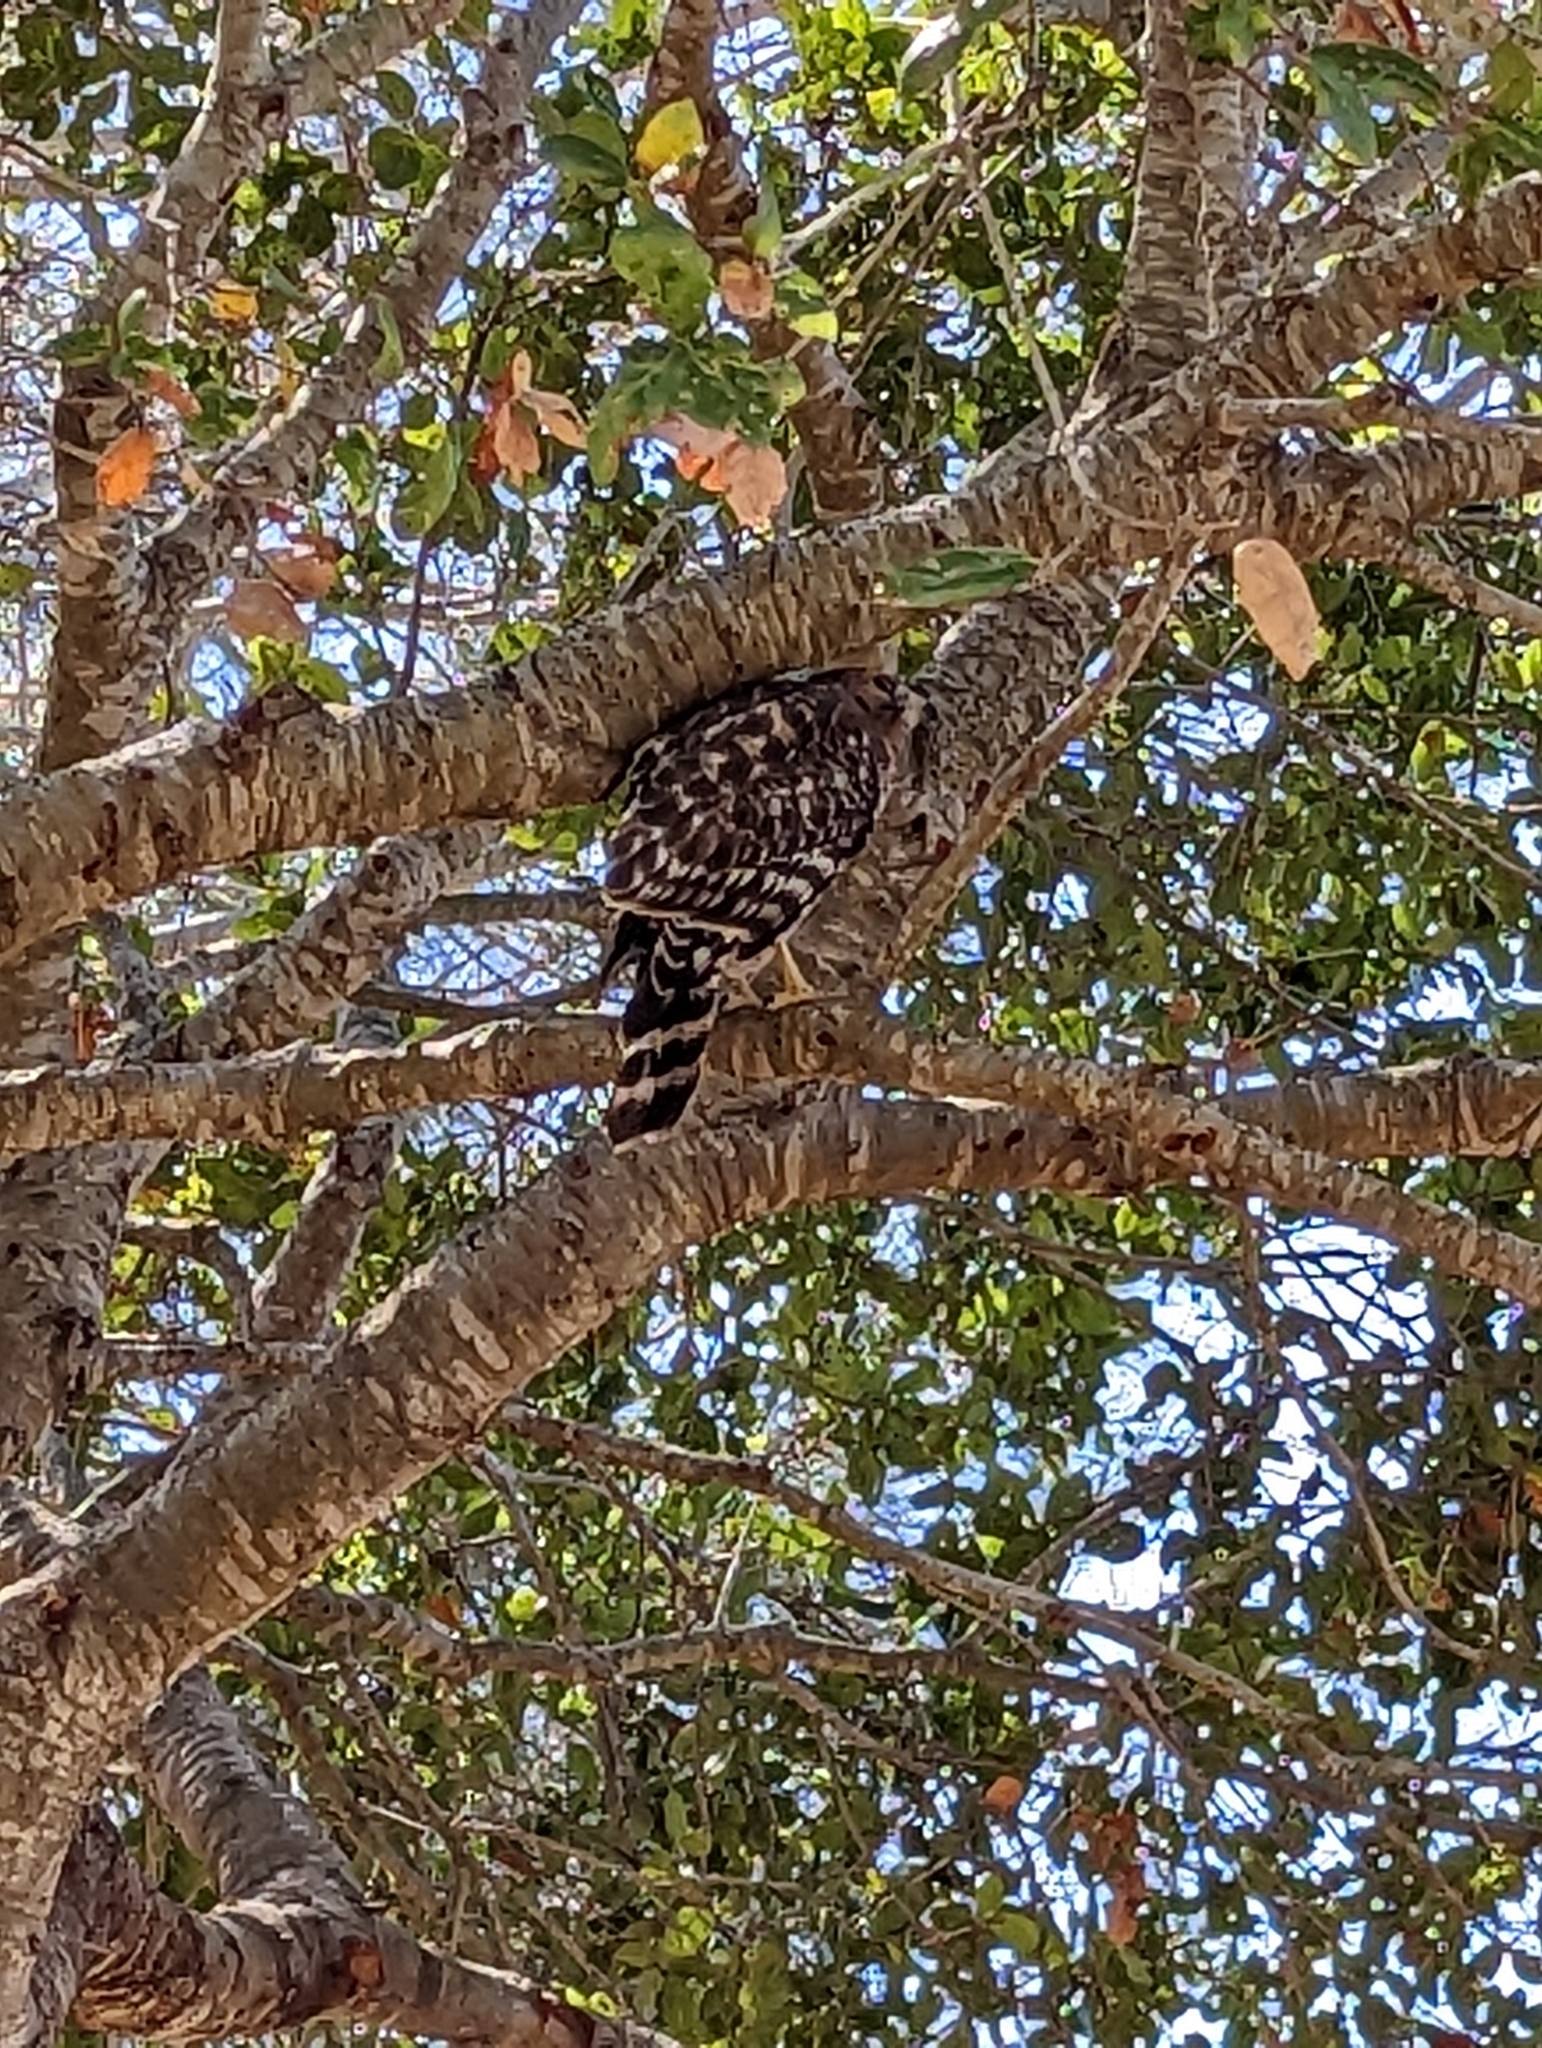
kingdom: Animalia
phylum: Chordata
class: Aves
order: Accipitriformes
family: Accipitridae
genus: Buteo
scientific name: Buteo lineatus
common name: Red-shouldered hawk
